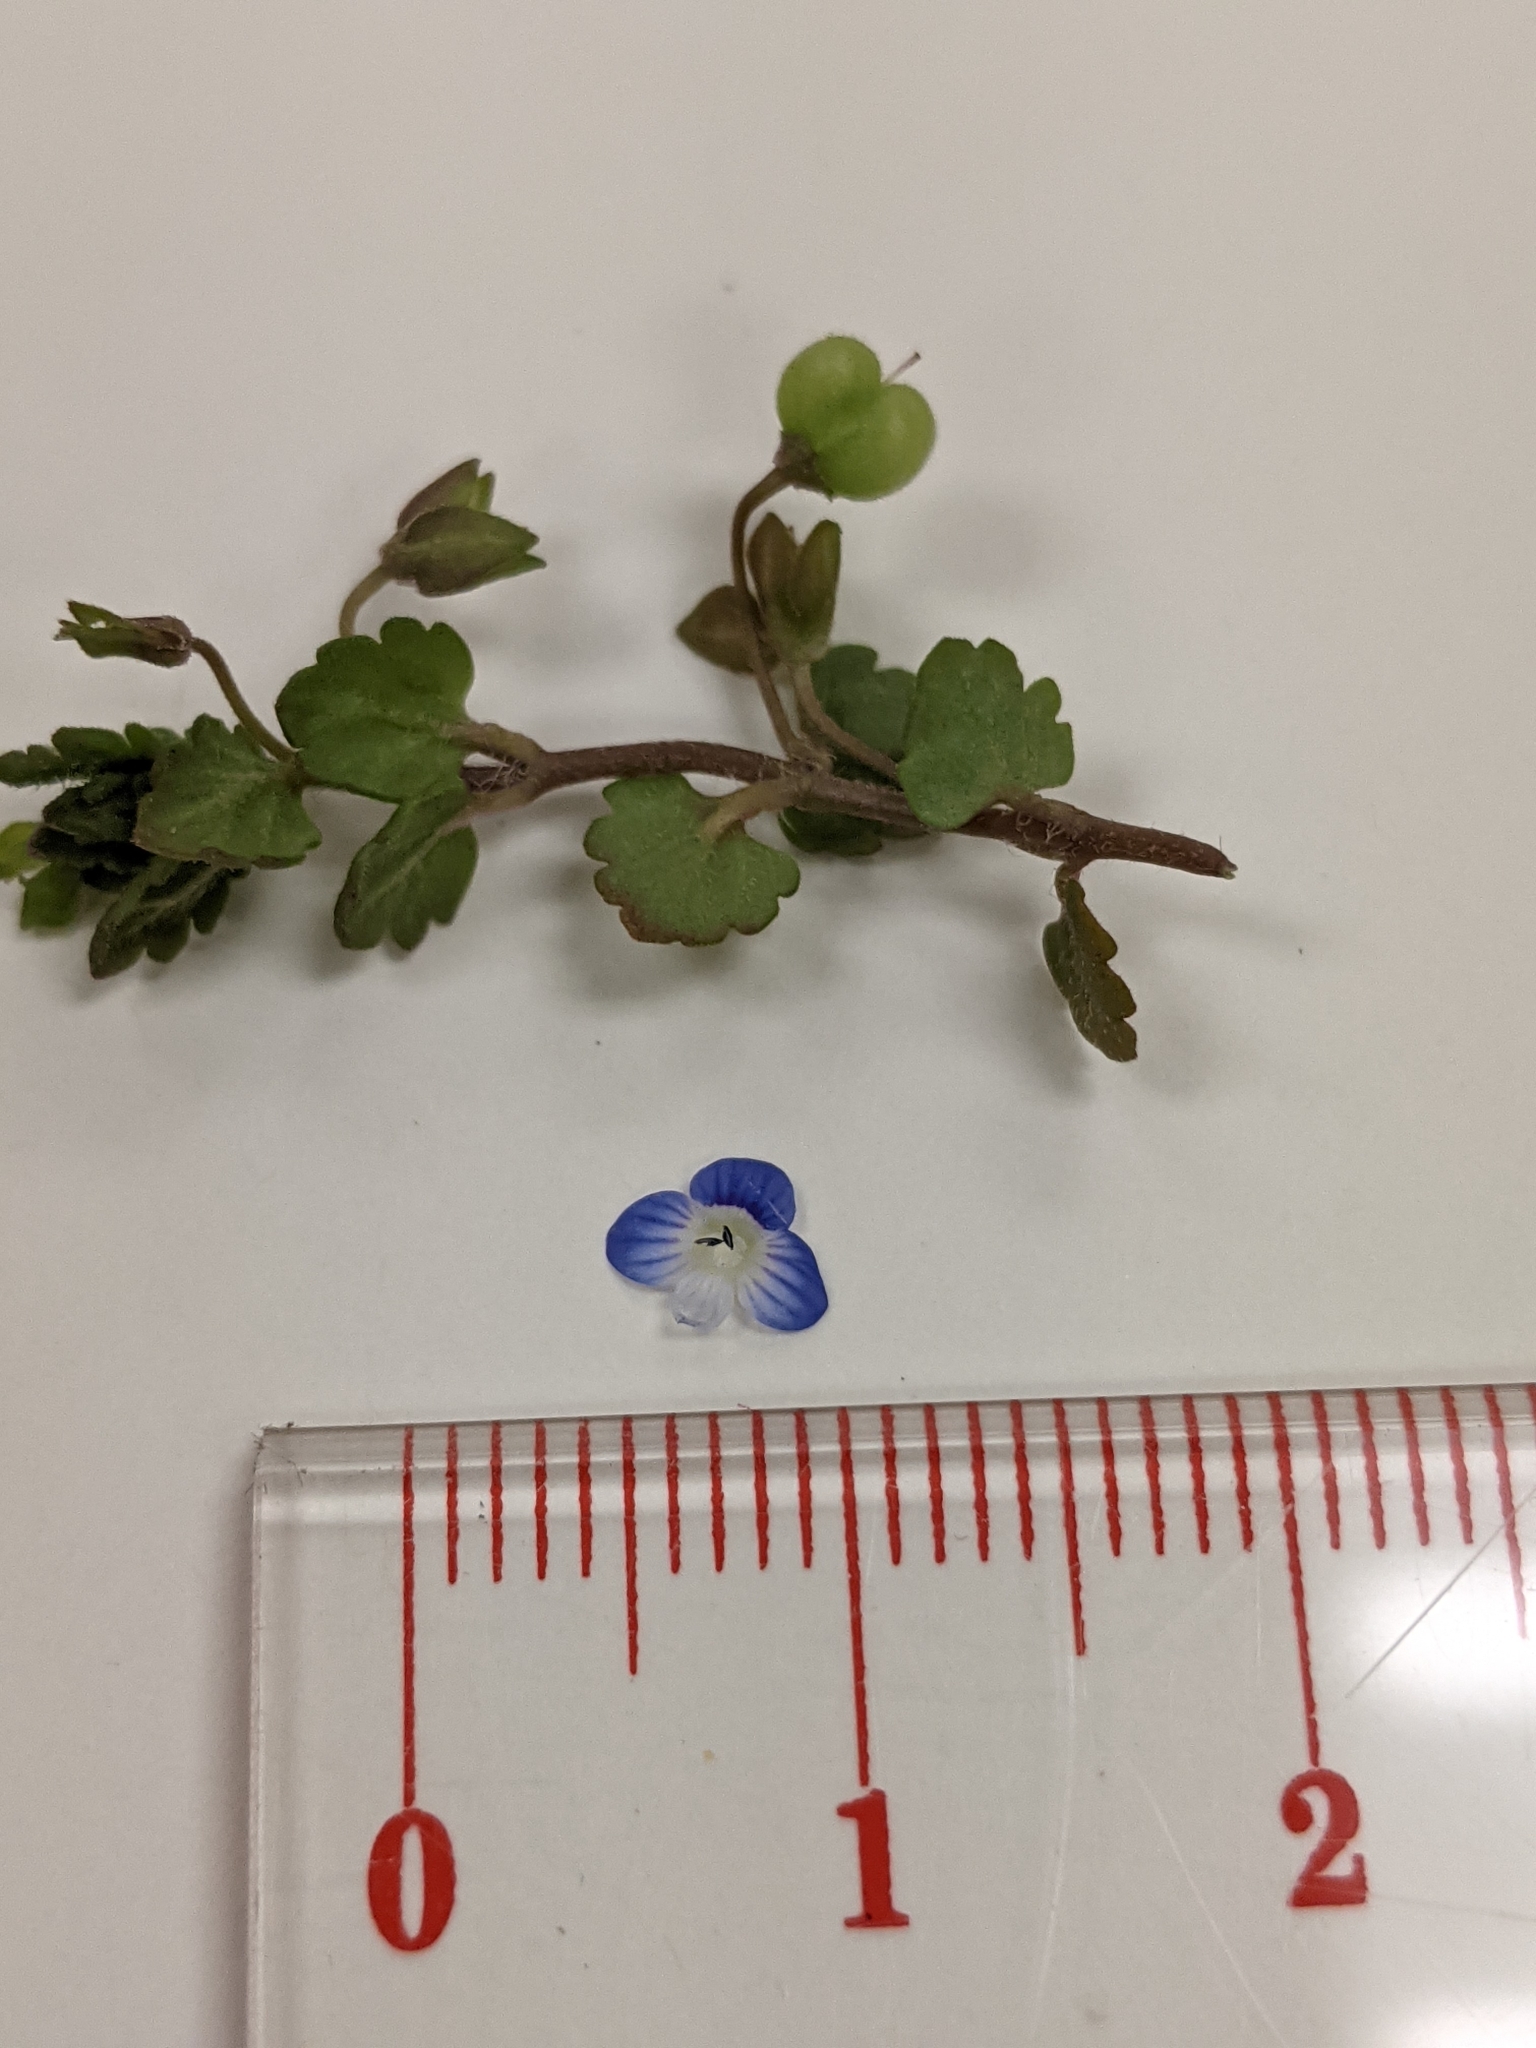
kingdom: Plantae
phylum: Tracheophyta
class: Magnoliopsida
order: Lamiales
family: Plantaginaceae
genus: Veronica
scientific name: Veronica polita
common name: Grey field-speedwell
